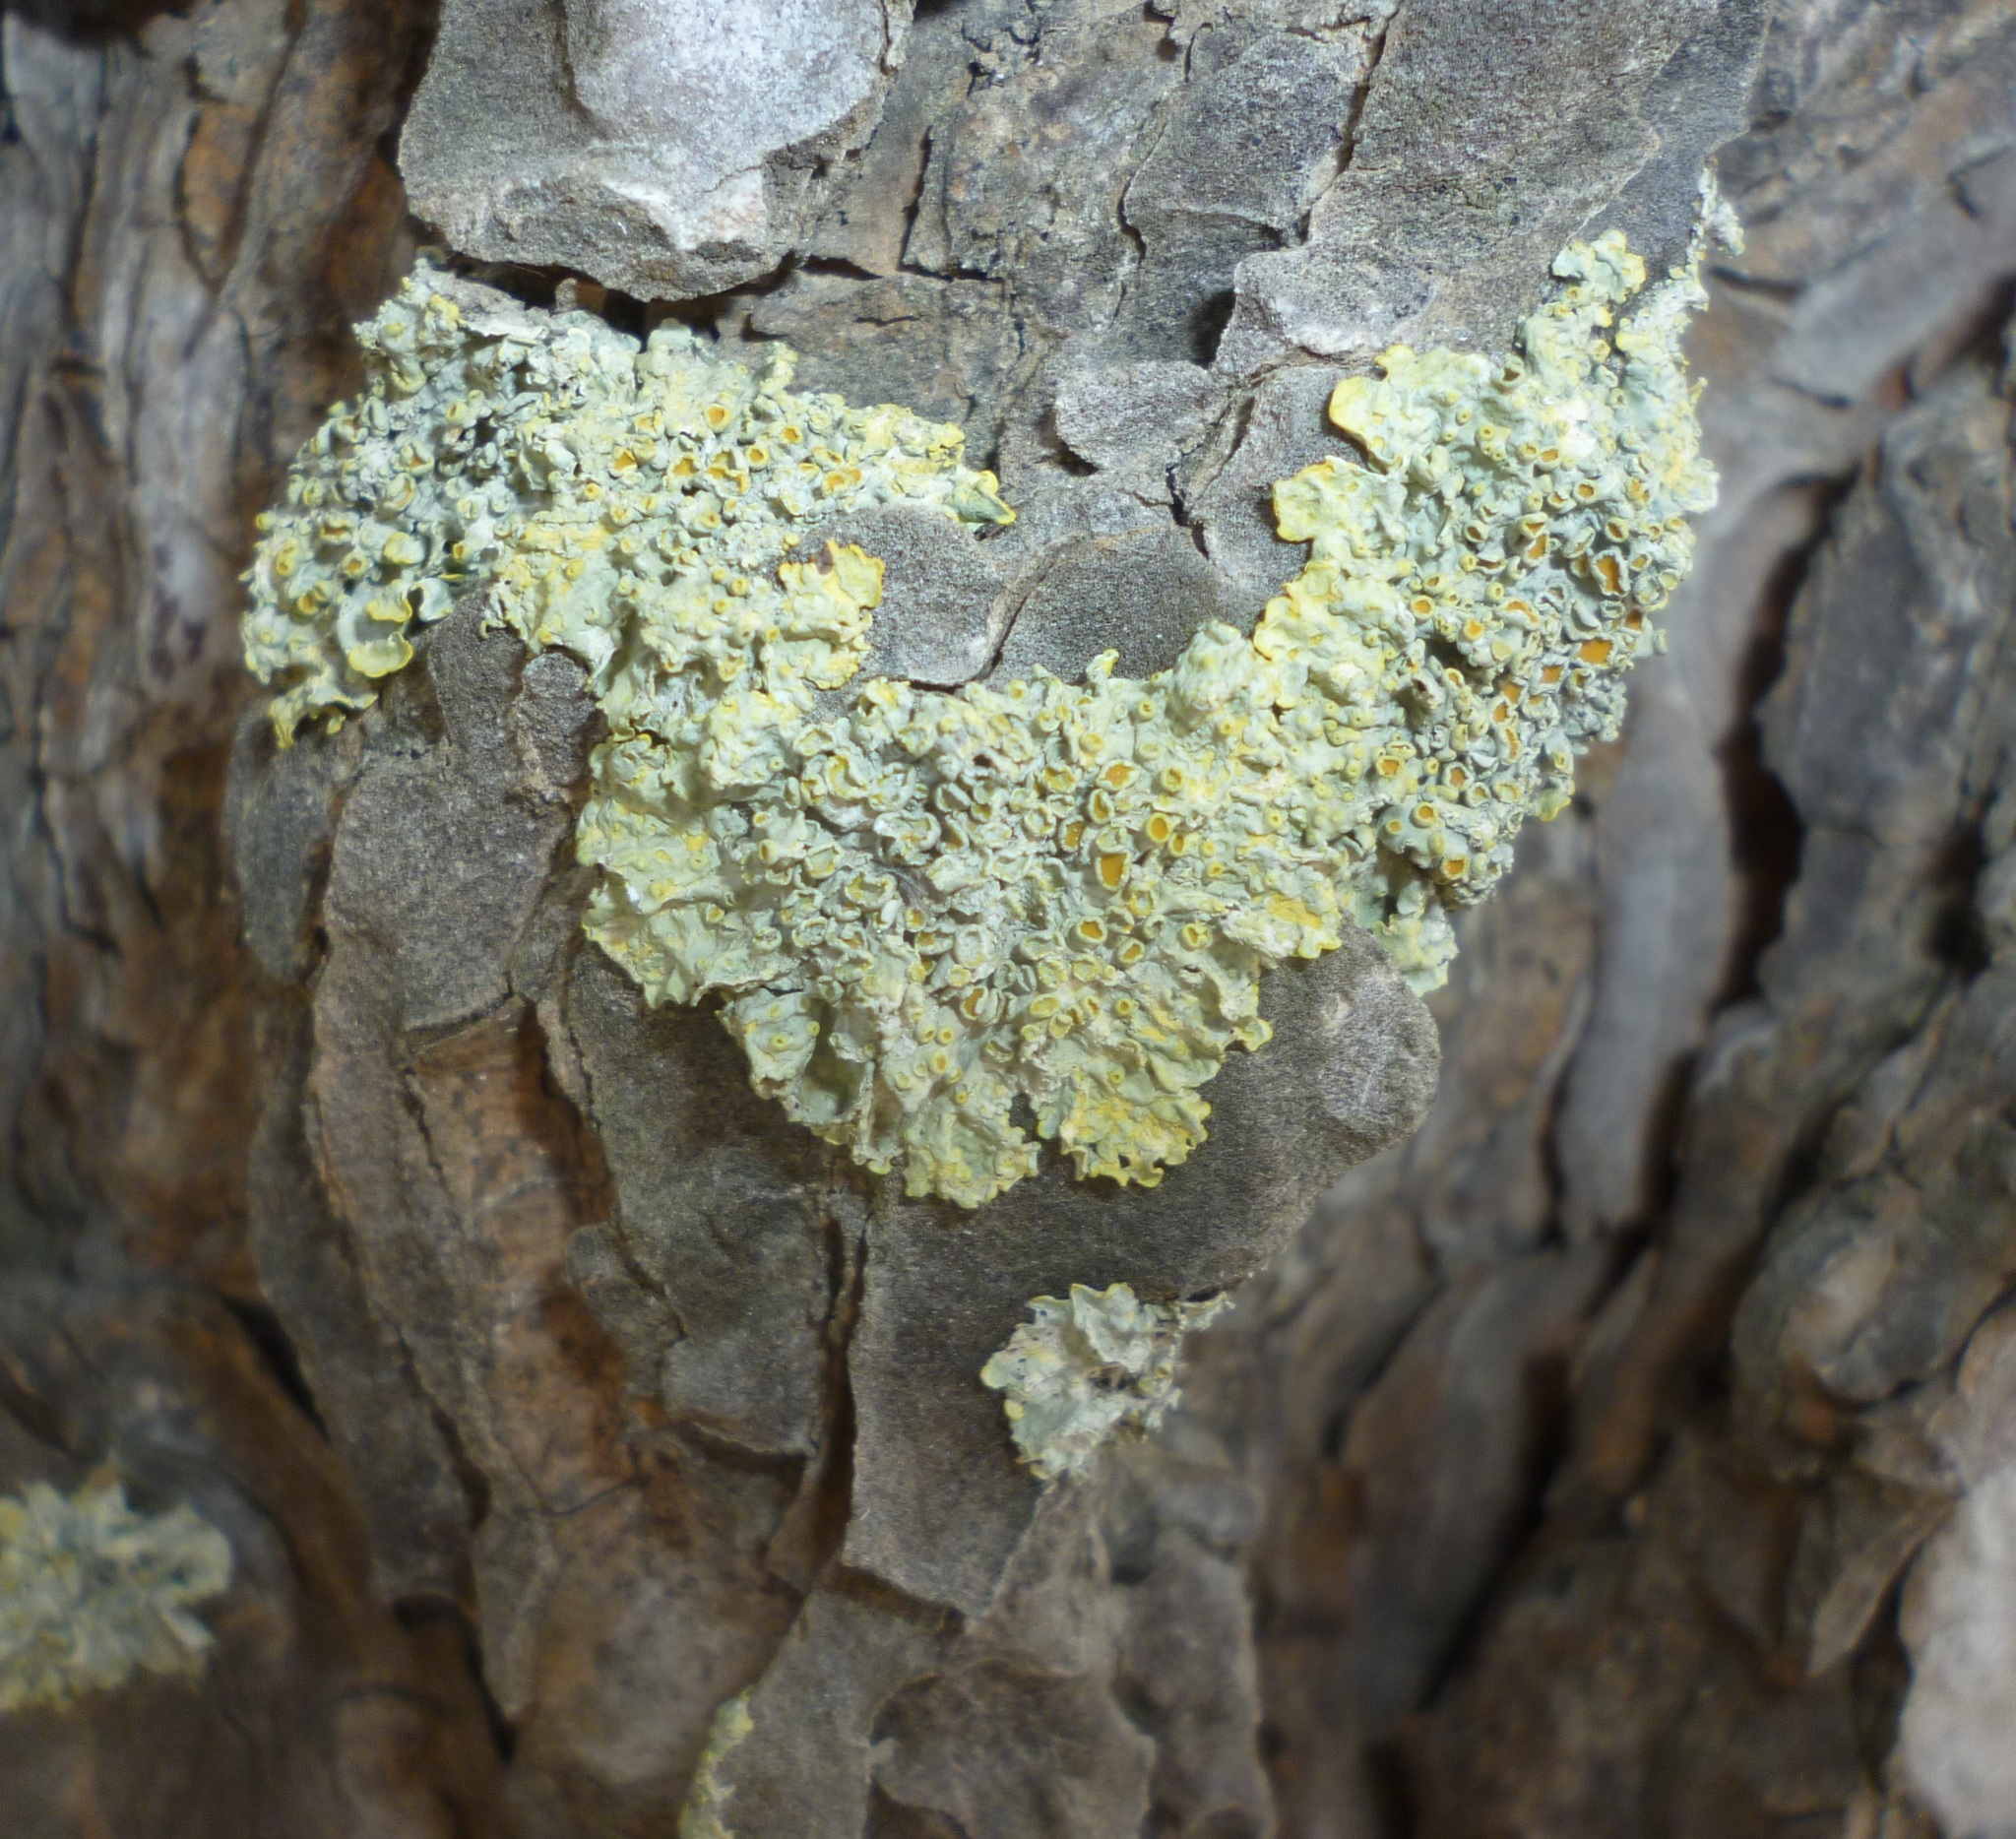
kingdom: Fungi
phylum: Ascomycota
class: Lecanoromycetes
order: Teloschistales
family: Teloschistaceae
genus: Xanthoria
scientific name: Xanthoria parietina
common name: Common orange lichen
